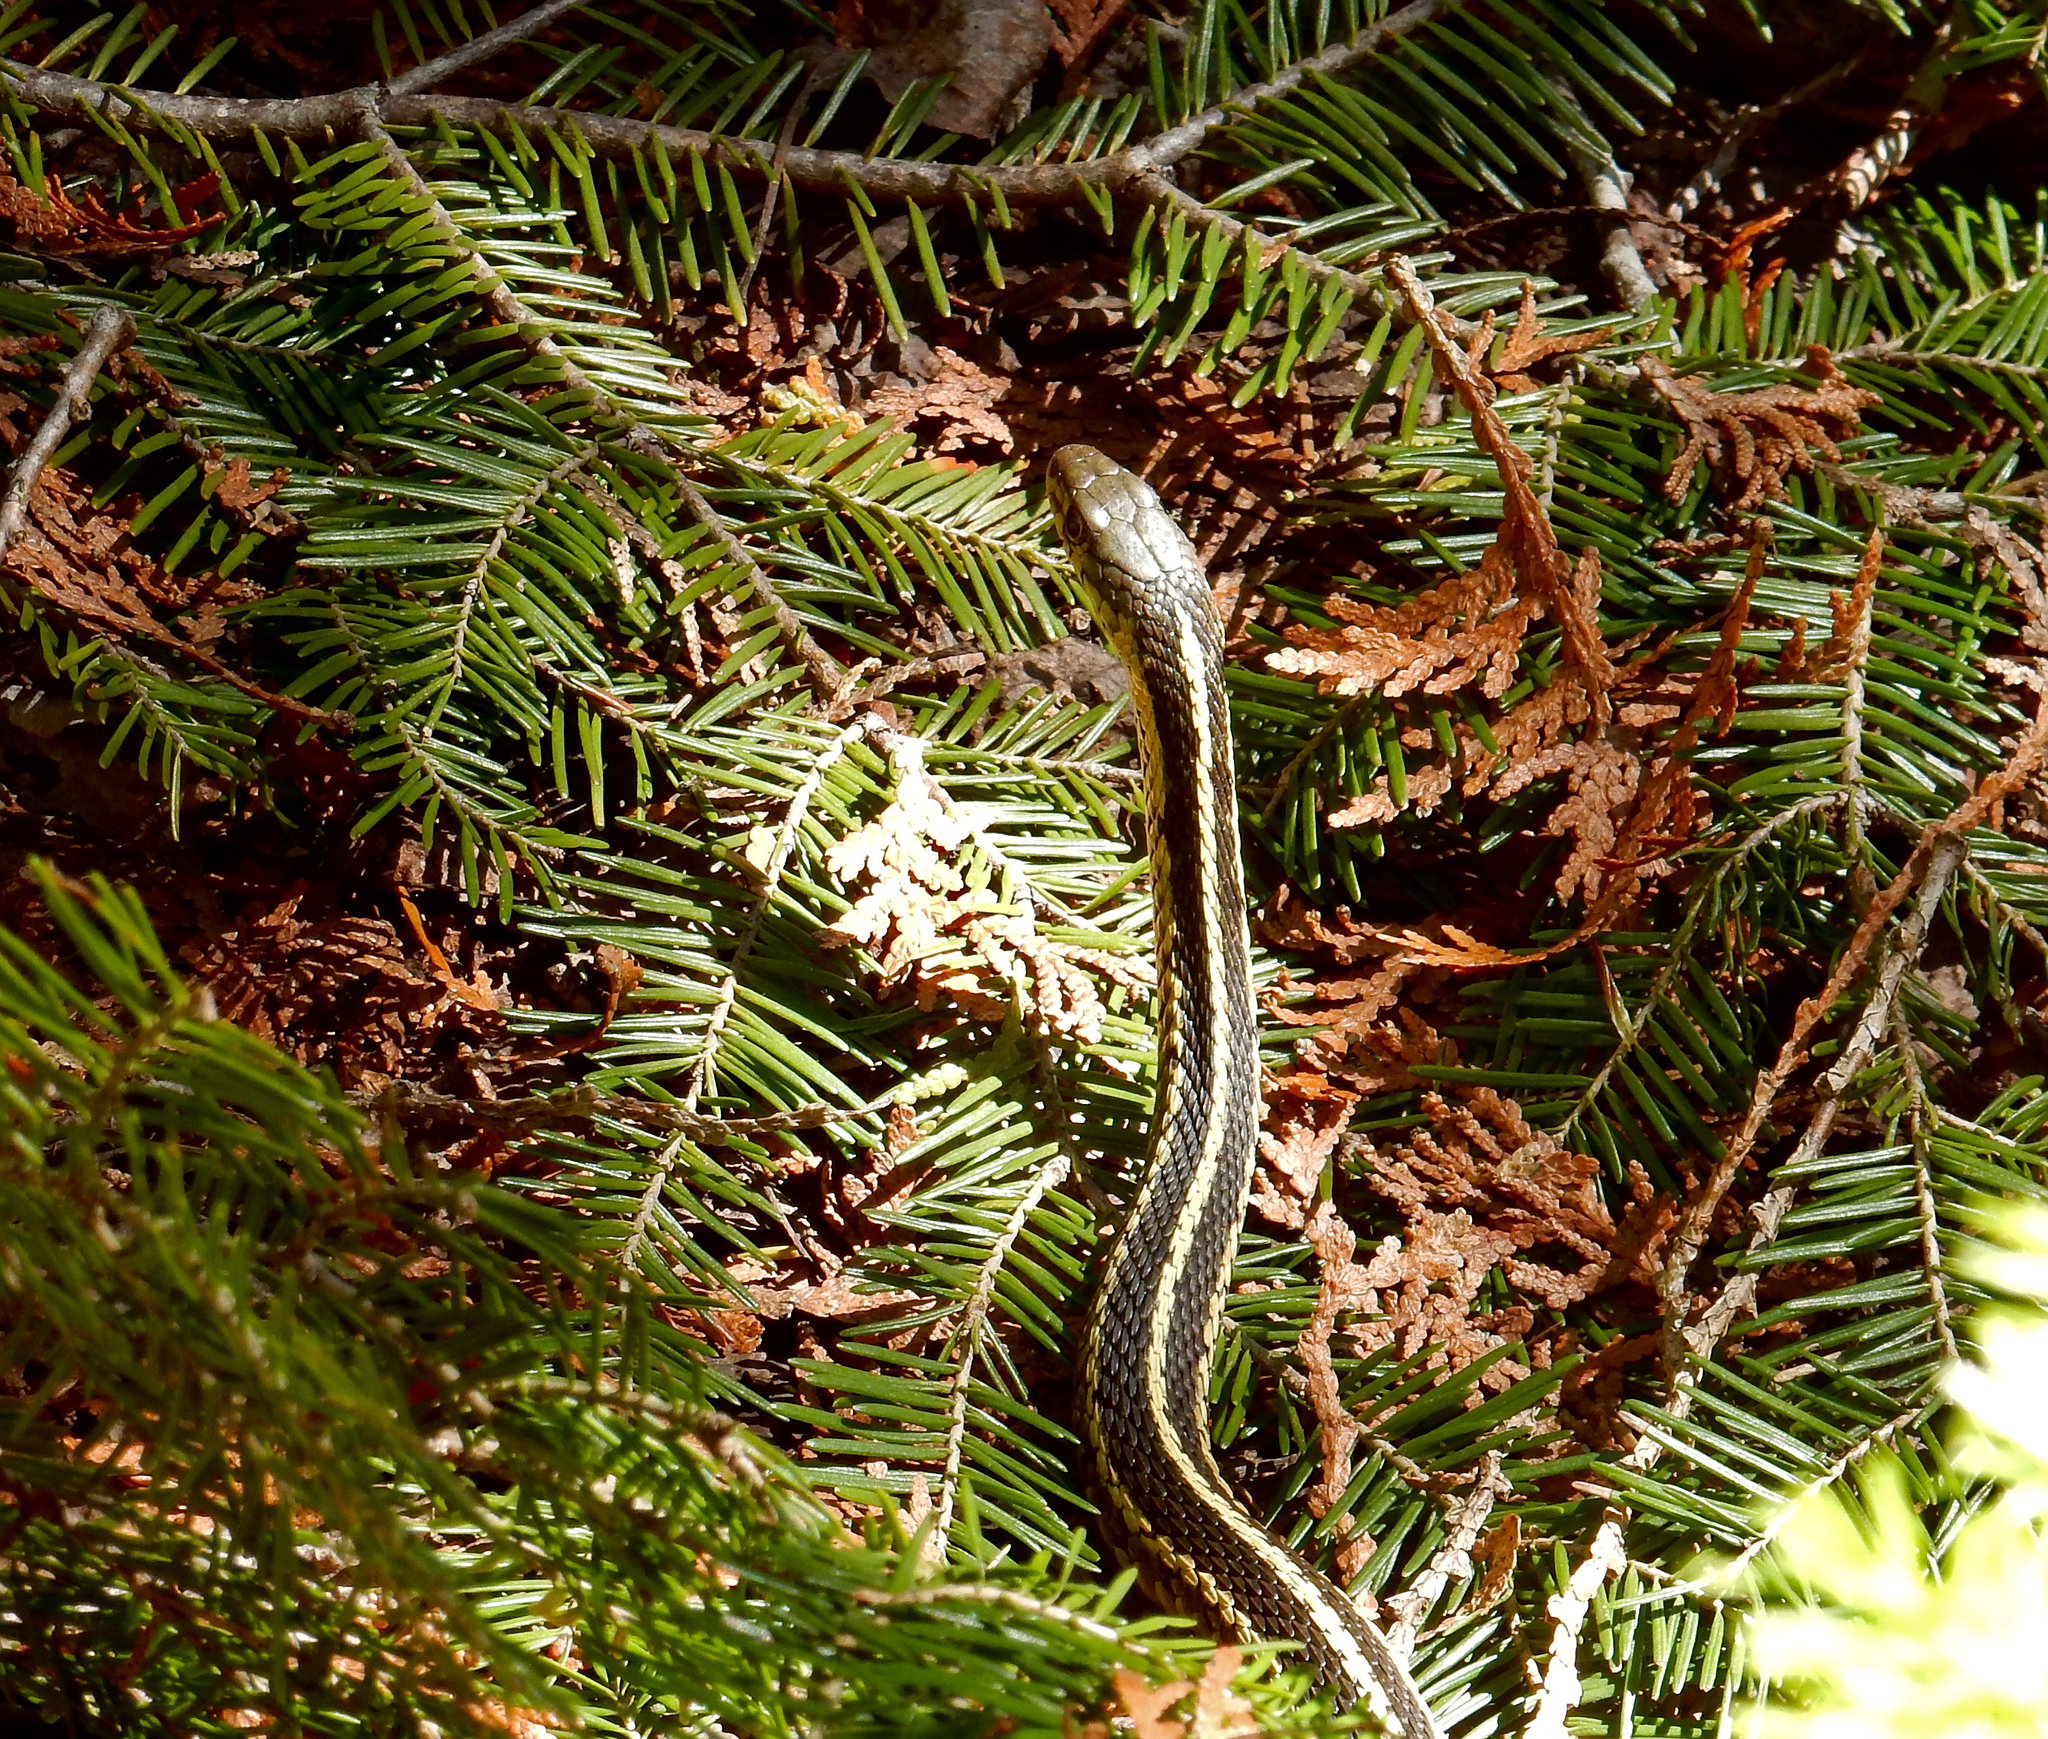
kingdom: Animalia
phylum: Chordata
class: Squamata
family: Colubridae
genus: Thamnophis
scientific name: Thamnophis sirtalis
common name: Common garter snake
